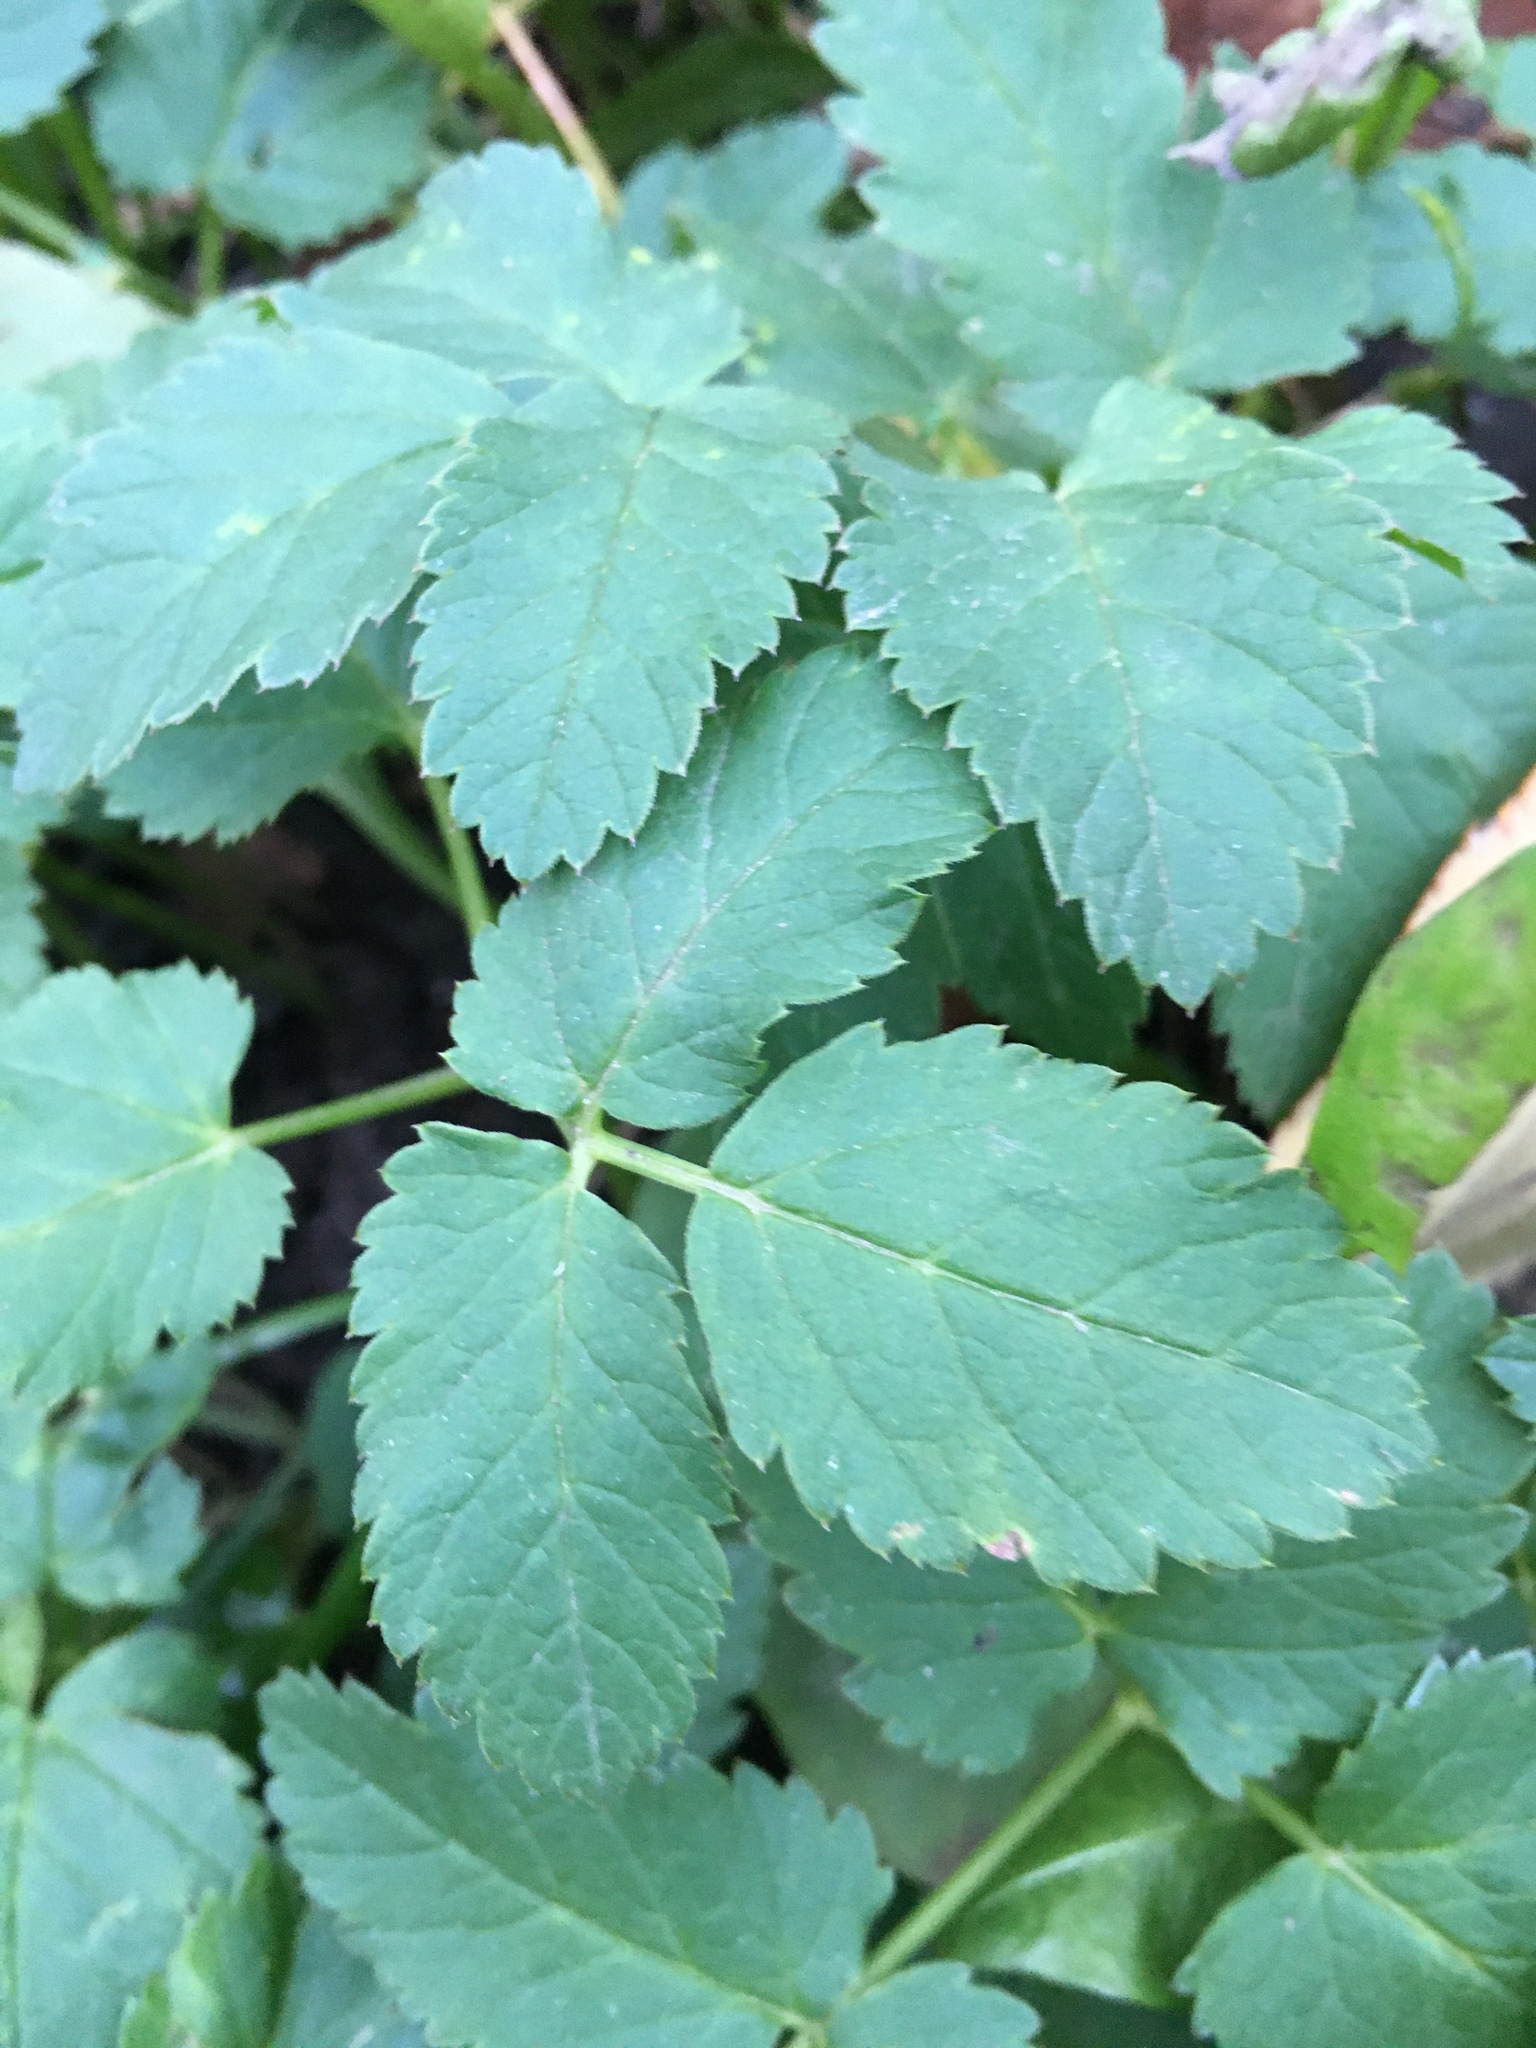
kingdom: Plantae
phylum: Tracheophyta
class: Magnoliopsida
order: Apiales
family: Apiaceae
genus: Aegopodium
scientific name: Aegopodium podagraria
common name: Ground-elder
